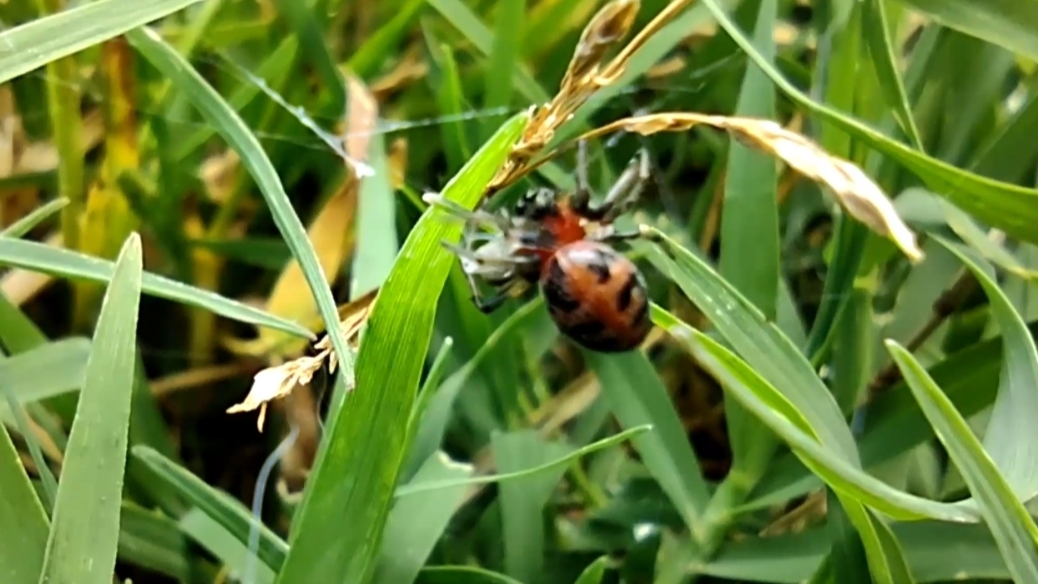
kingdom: Animalia
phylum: Arthropoda
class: Arachnida
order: Araneae
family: Araneidae
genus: Alpaida
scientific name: Alpaida versicolor
